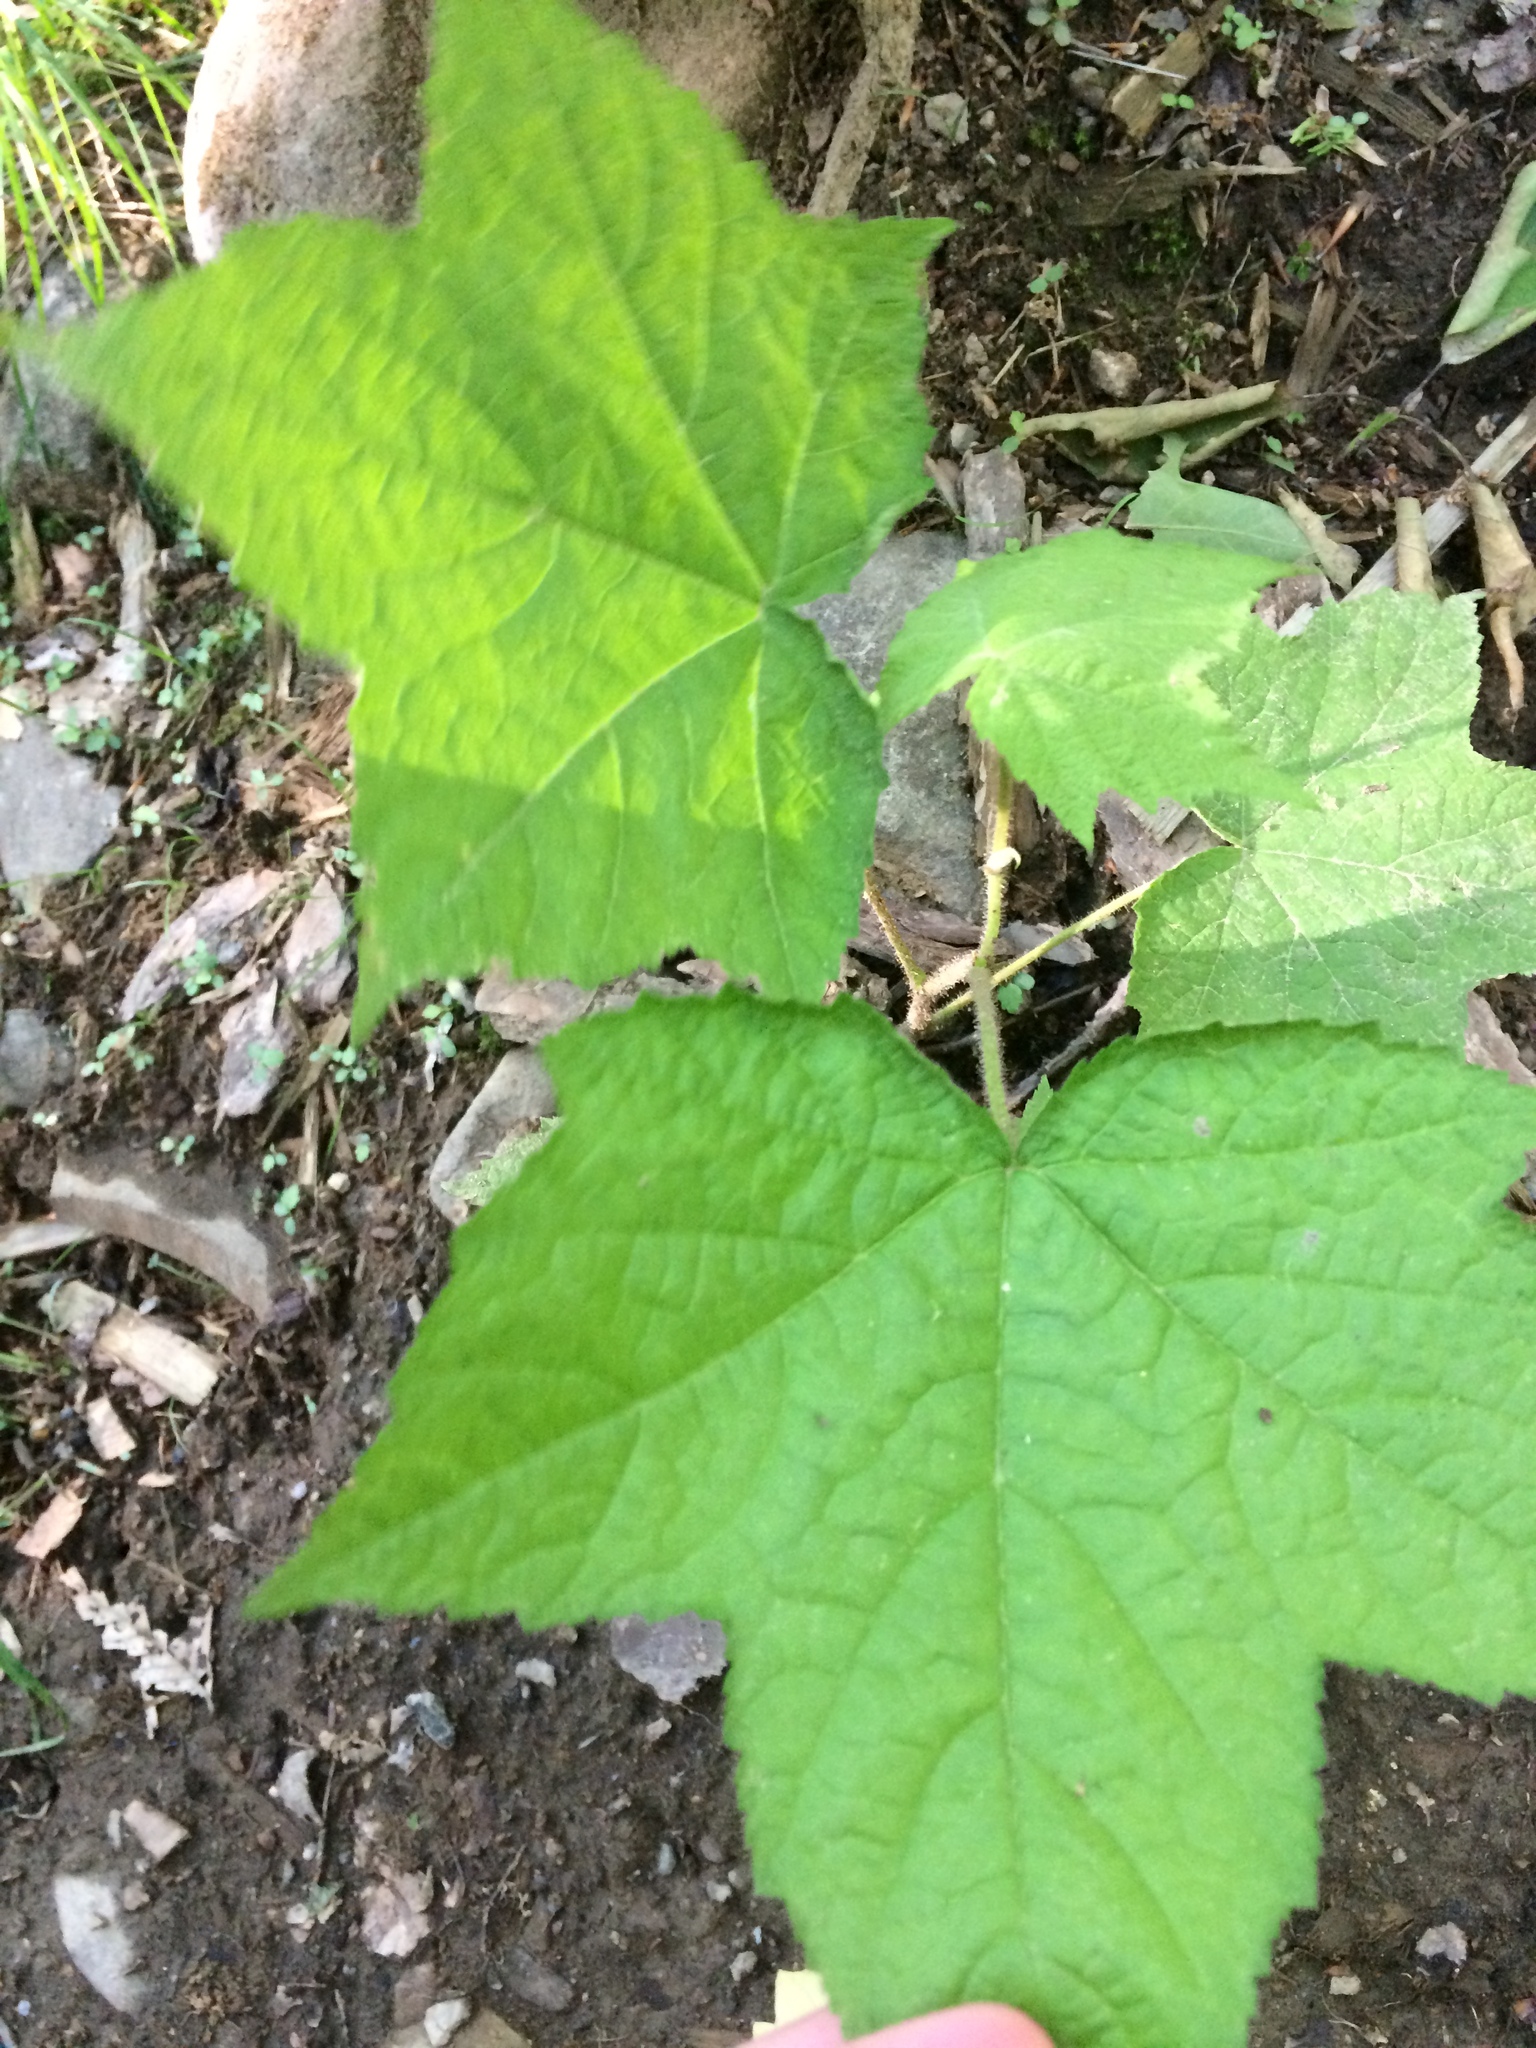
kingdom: Plantae
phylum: Tracheophyta
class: Magnoliopsida
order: Rosales
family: Rosaceae
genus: Rubus
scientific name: Rubus odoratus
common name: Purple-flowered raspberry
